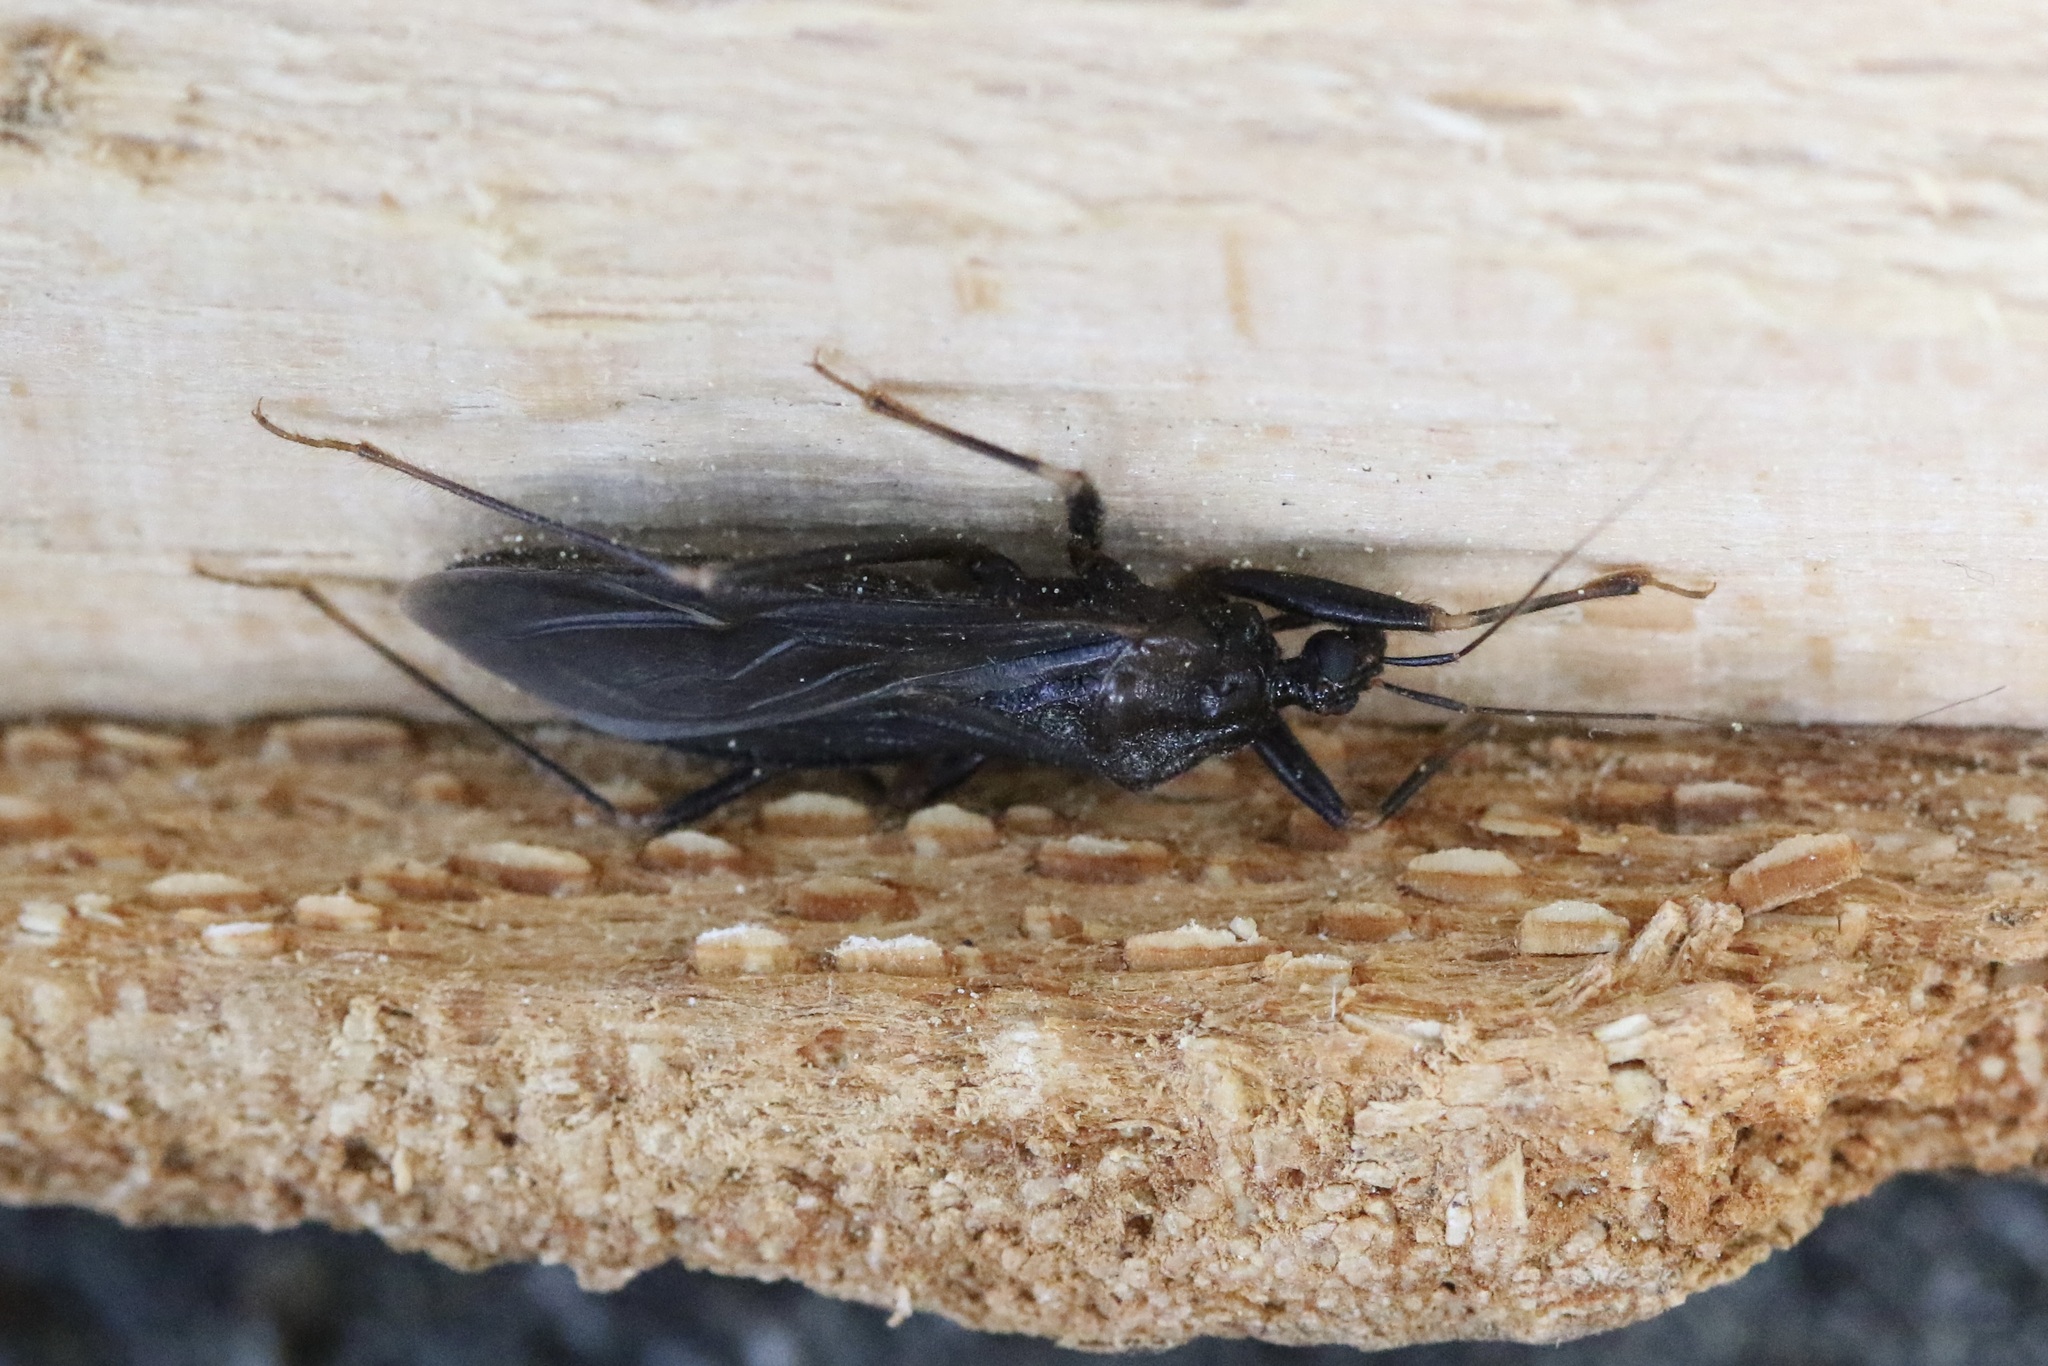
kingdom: Animalia
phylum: Arthropoda
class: Insecta
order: Hemiptera
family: Reduviidae
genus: Reduvius
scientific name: Reduvius personatus
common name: Masked hunter
